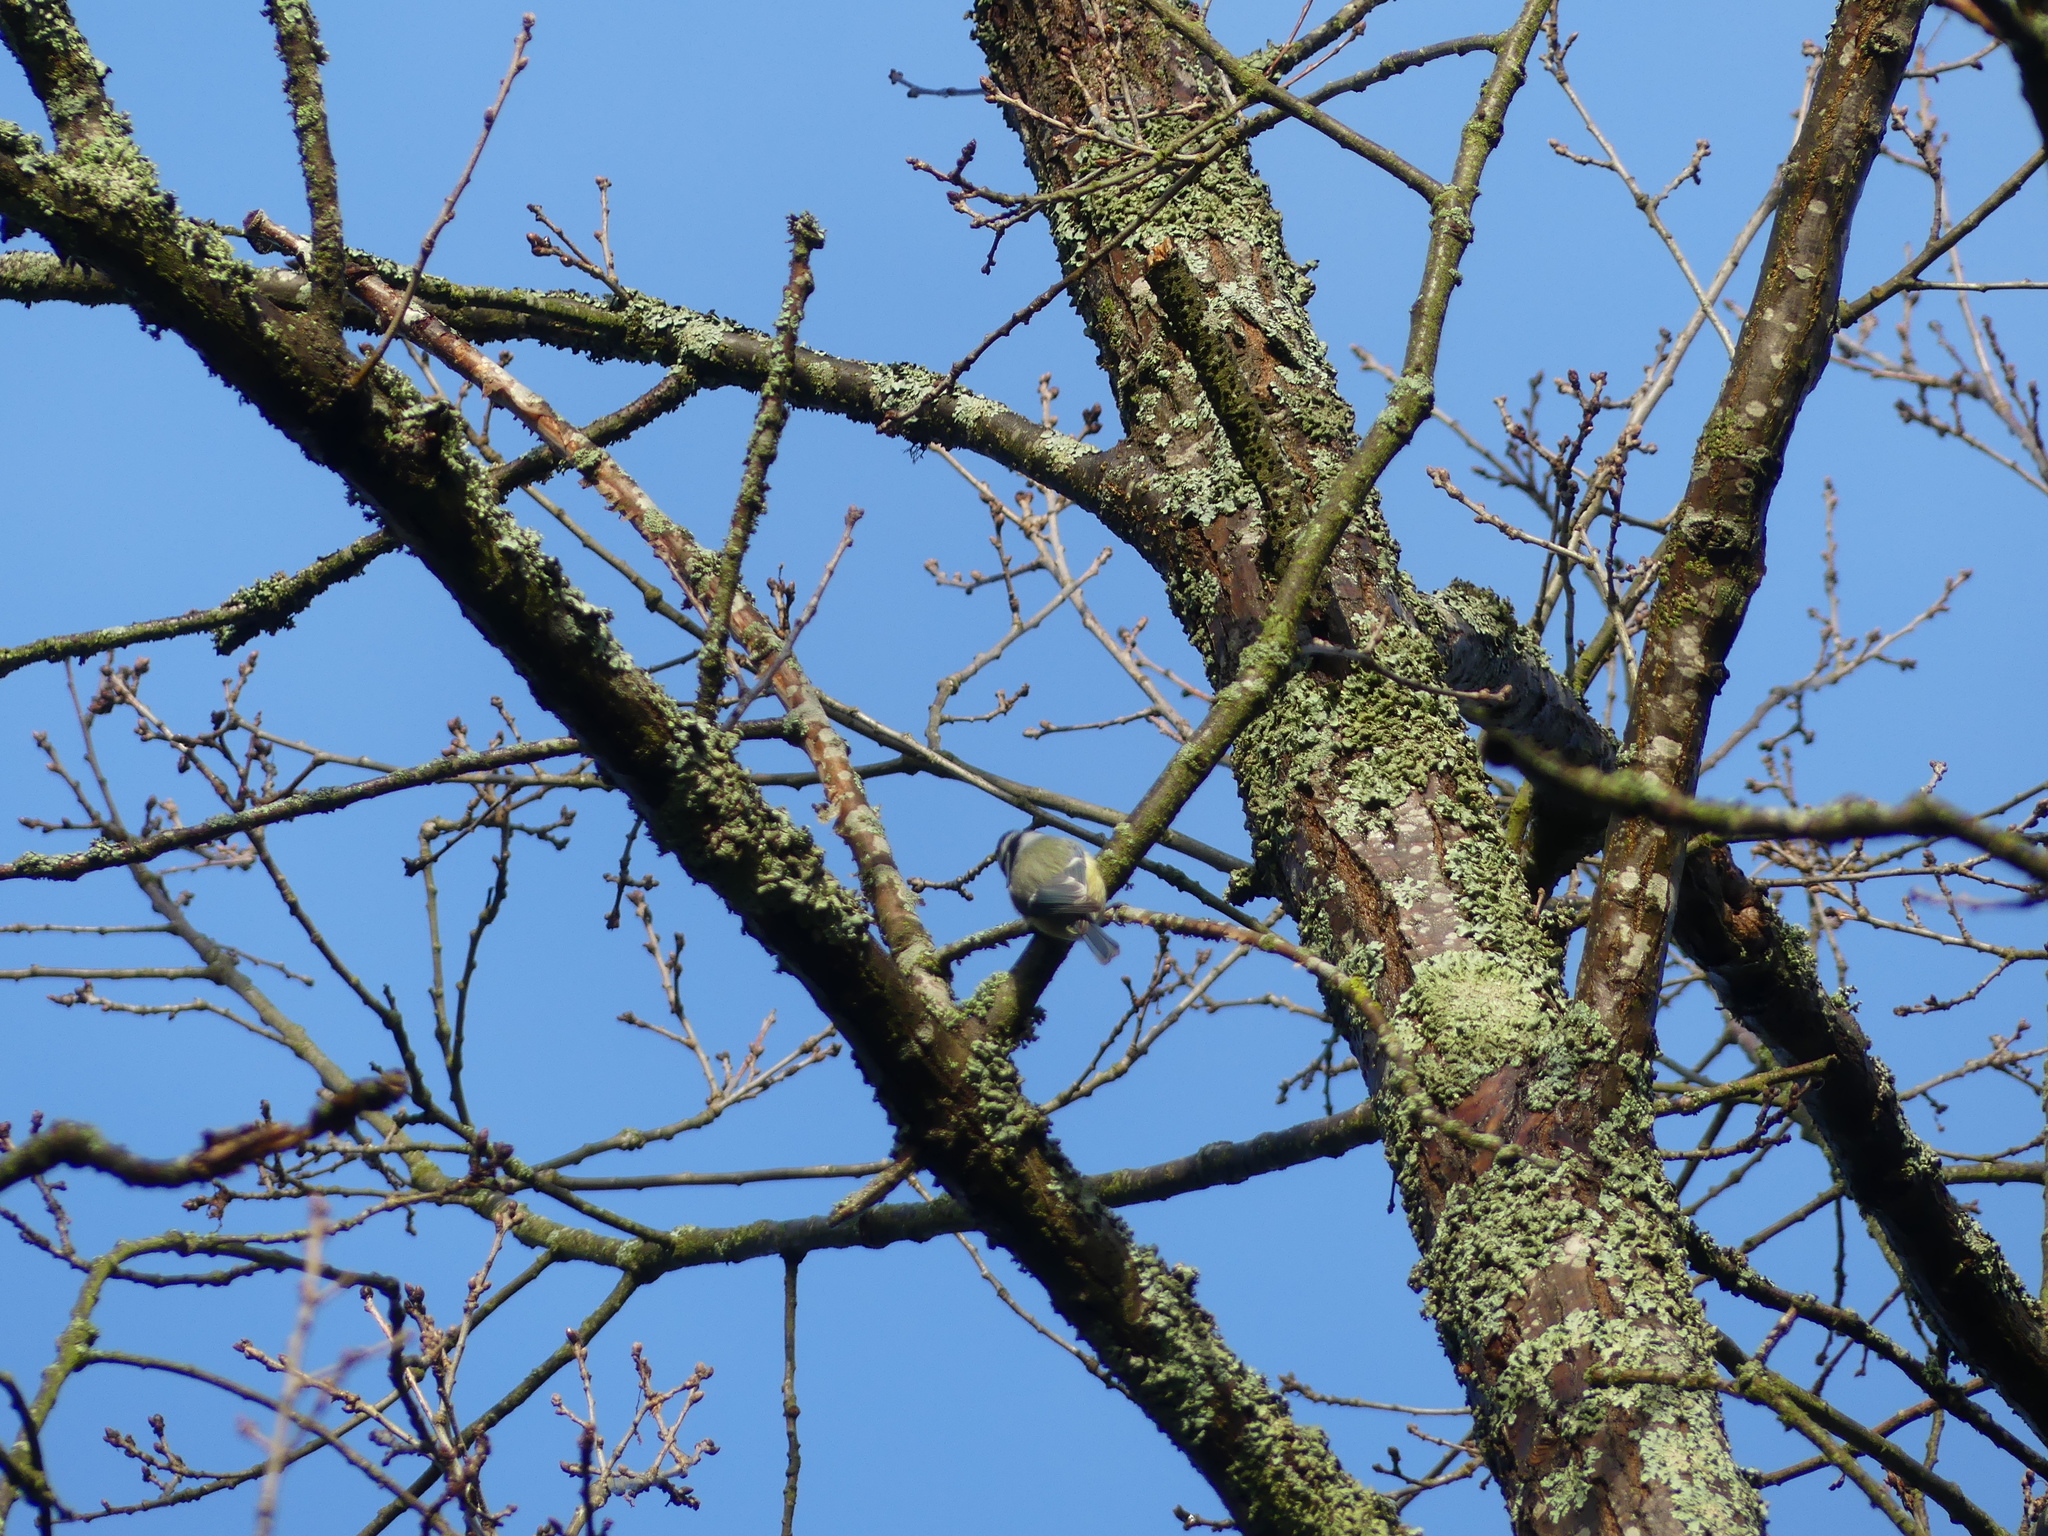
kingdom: Animalia
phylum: Chordata
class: Aves
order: Passeriformes
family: Paridae
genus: Cyanistes
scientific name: Cyanistes caeruleus
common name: Eurasian blue tit
